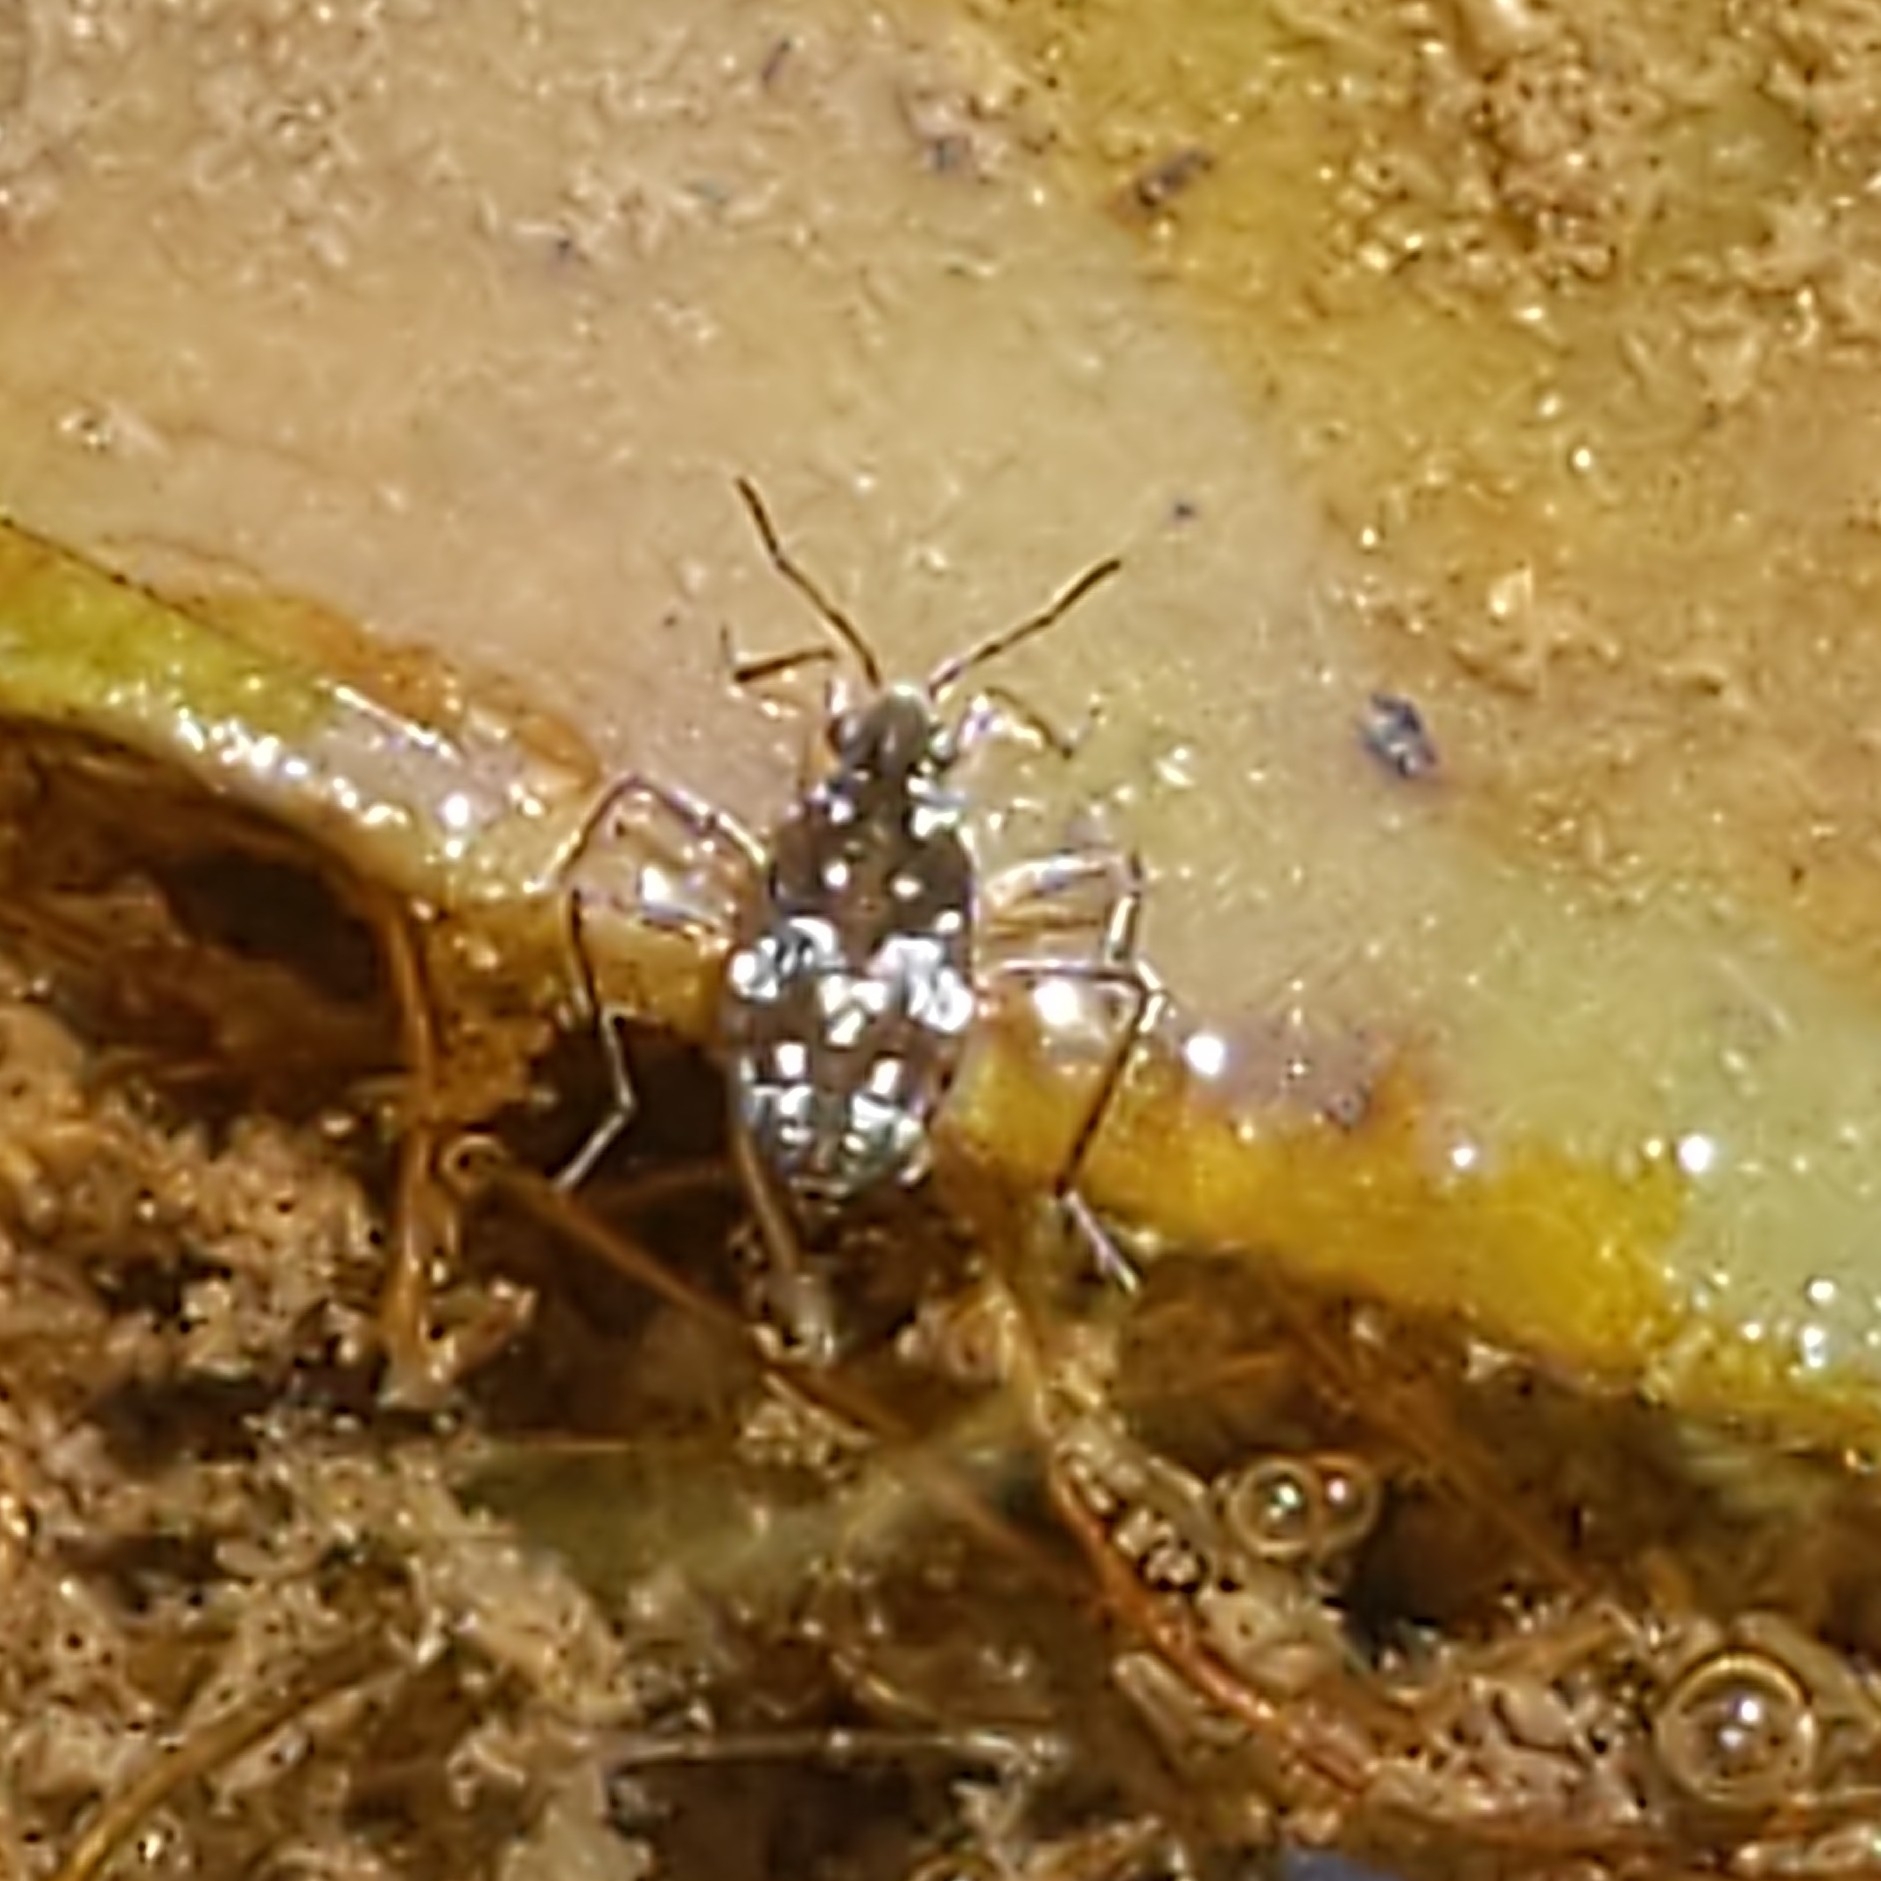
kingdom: Animalia
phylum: Arthropoda
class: Insecta
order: Hemiptera
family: Veliidae
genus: Microvelia
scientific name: Microvelia americana
